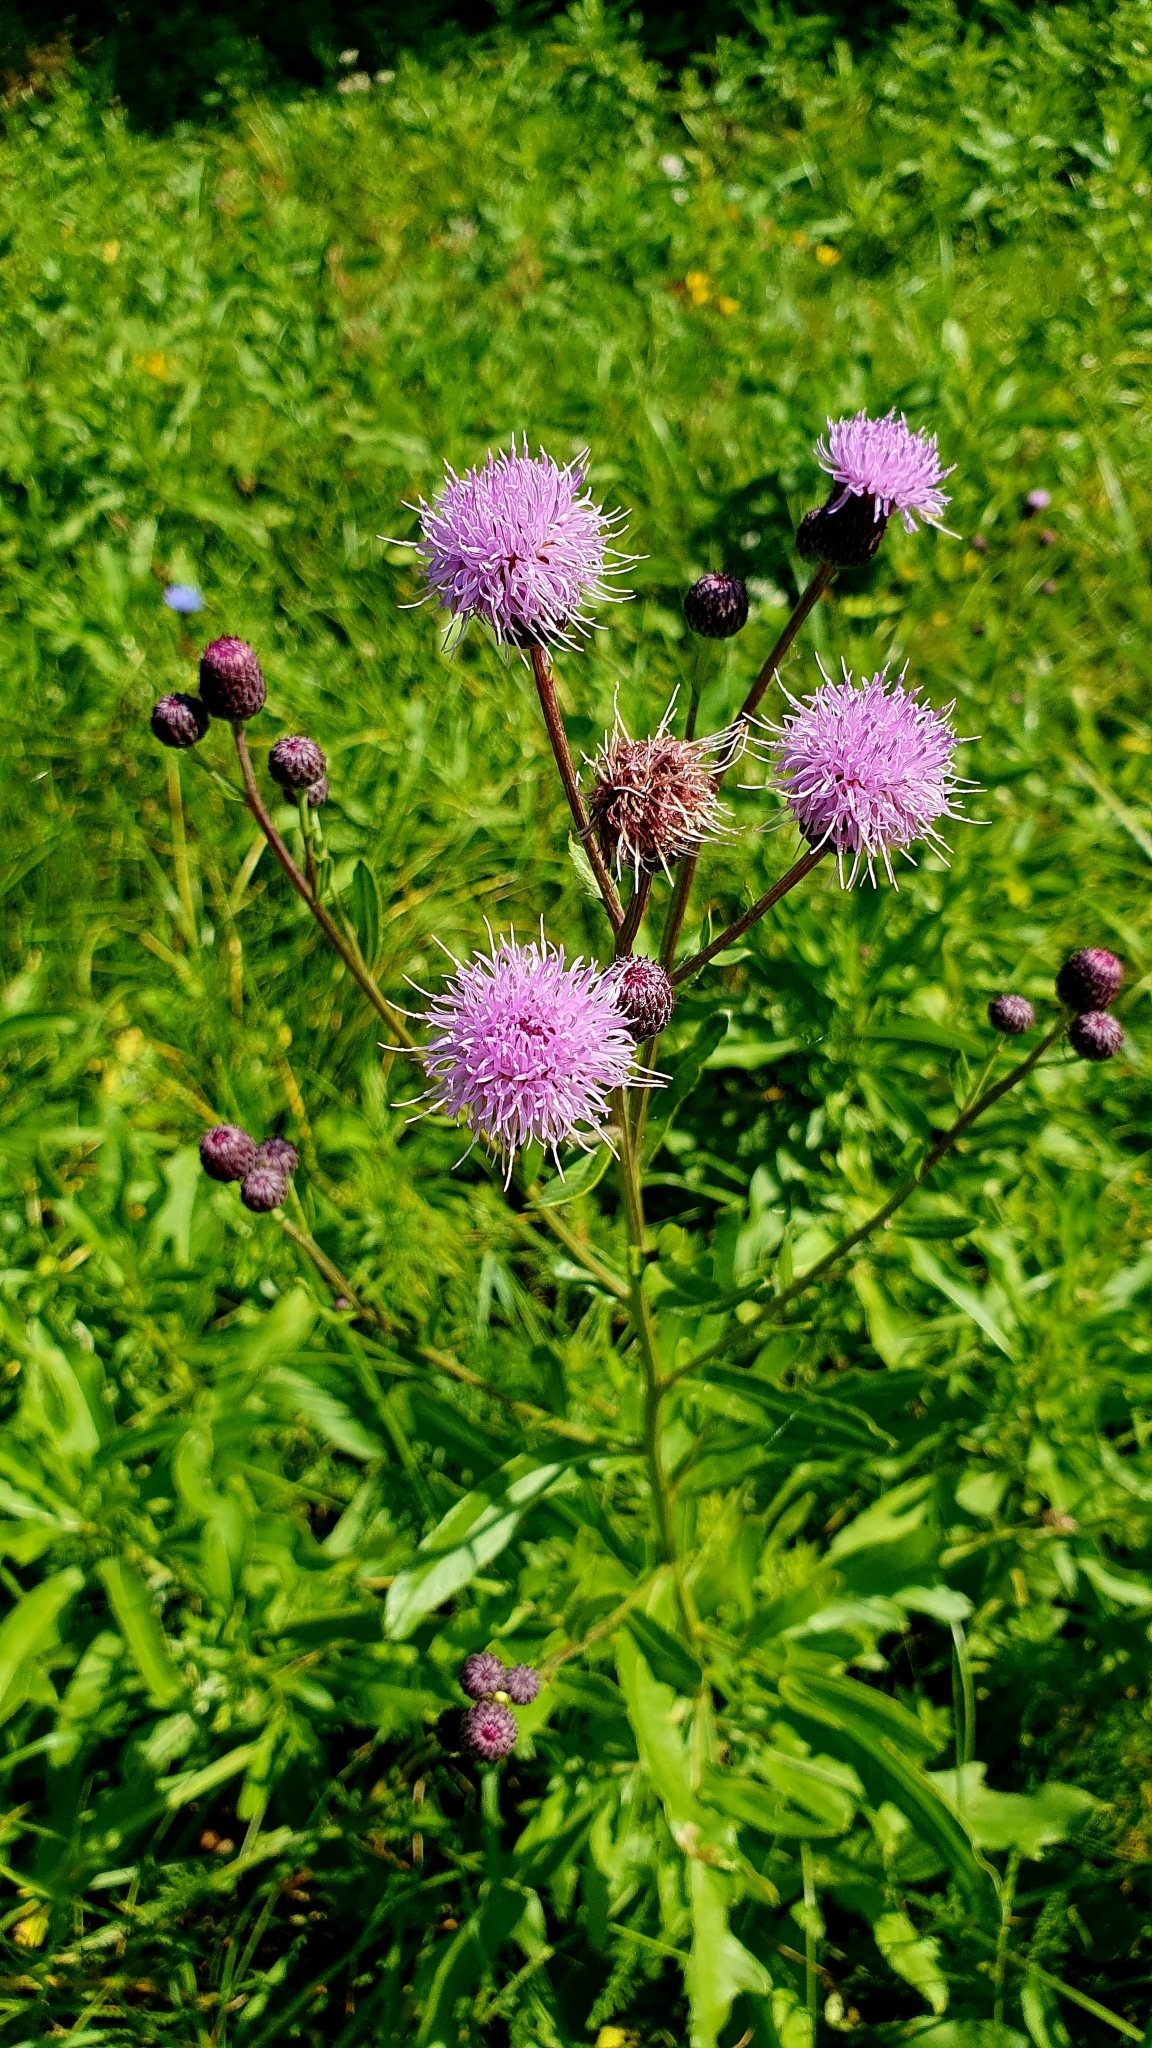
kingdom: Plantae
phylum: Tracheophyta
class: Magnoliopsida
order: Asterales
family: Asteraceae
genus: Cirsium
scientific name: Cirsium arvense
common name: Creeping thistle
